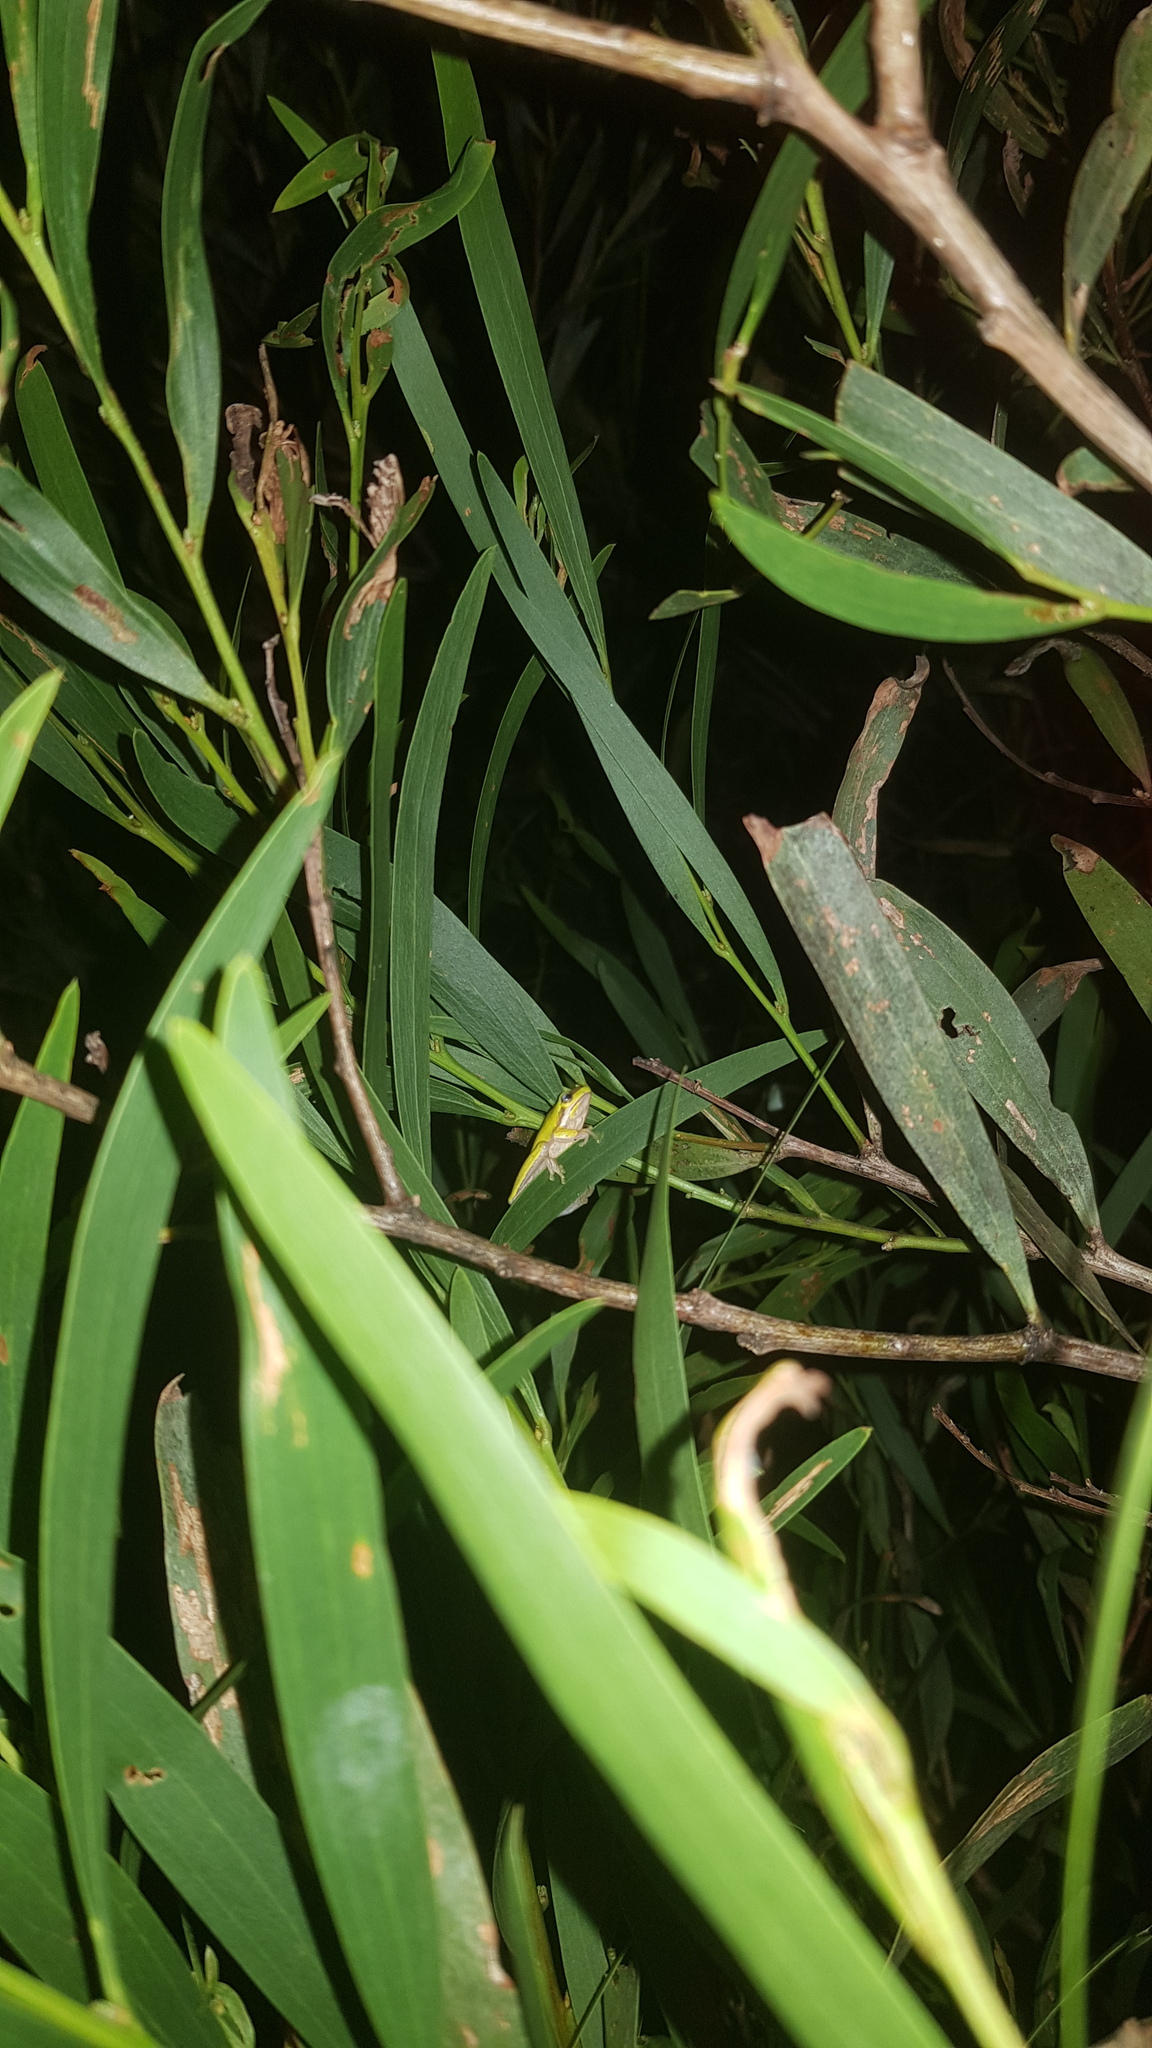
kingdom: Animalia
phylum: Chordata
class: Amphibia
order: Anura
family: Pelodryadidae
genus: Litoria
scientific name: Litoria fallax
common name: Eastern dwarf treefrog
